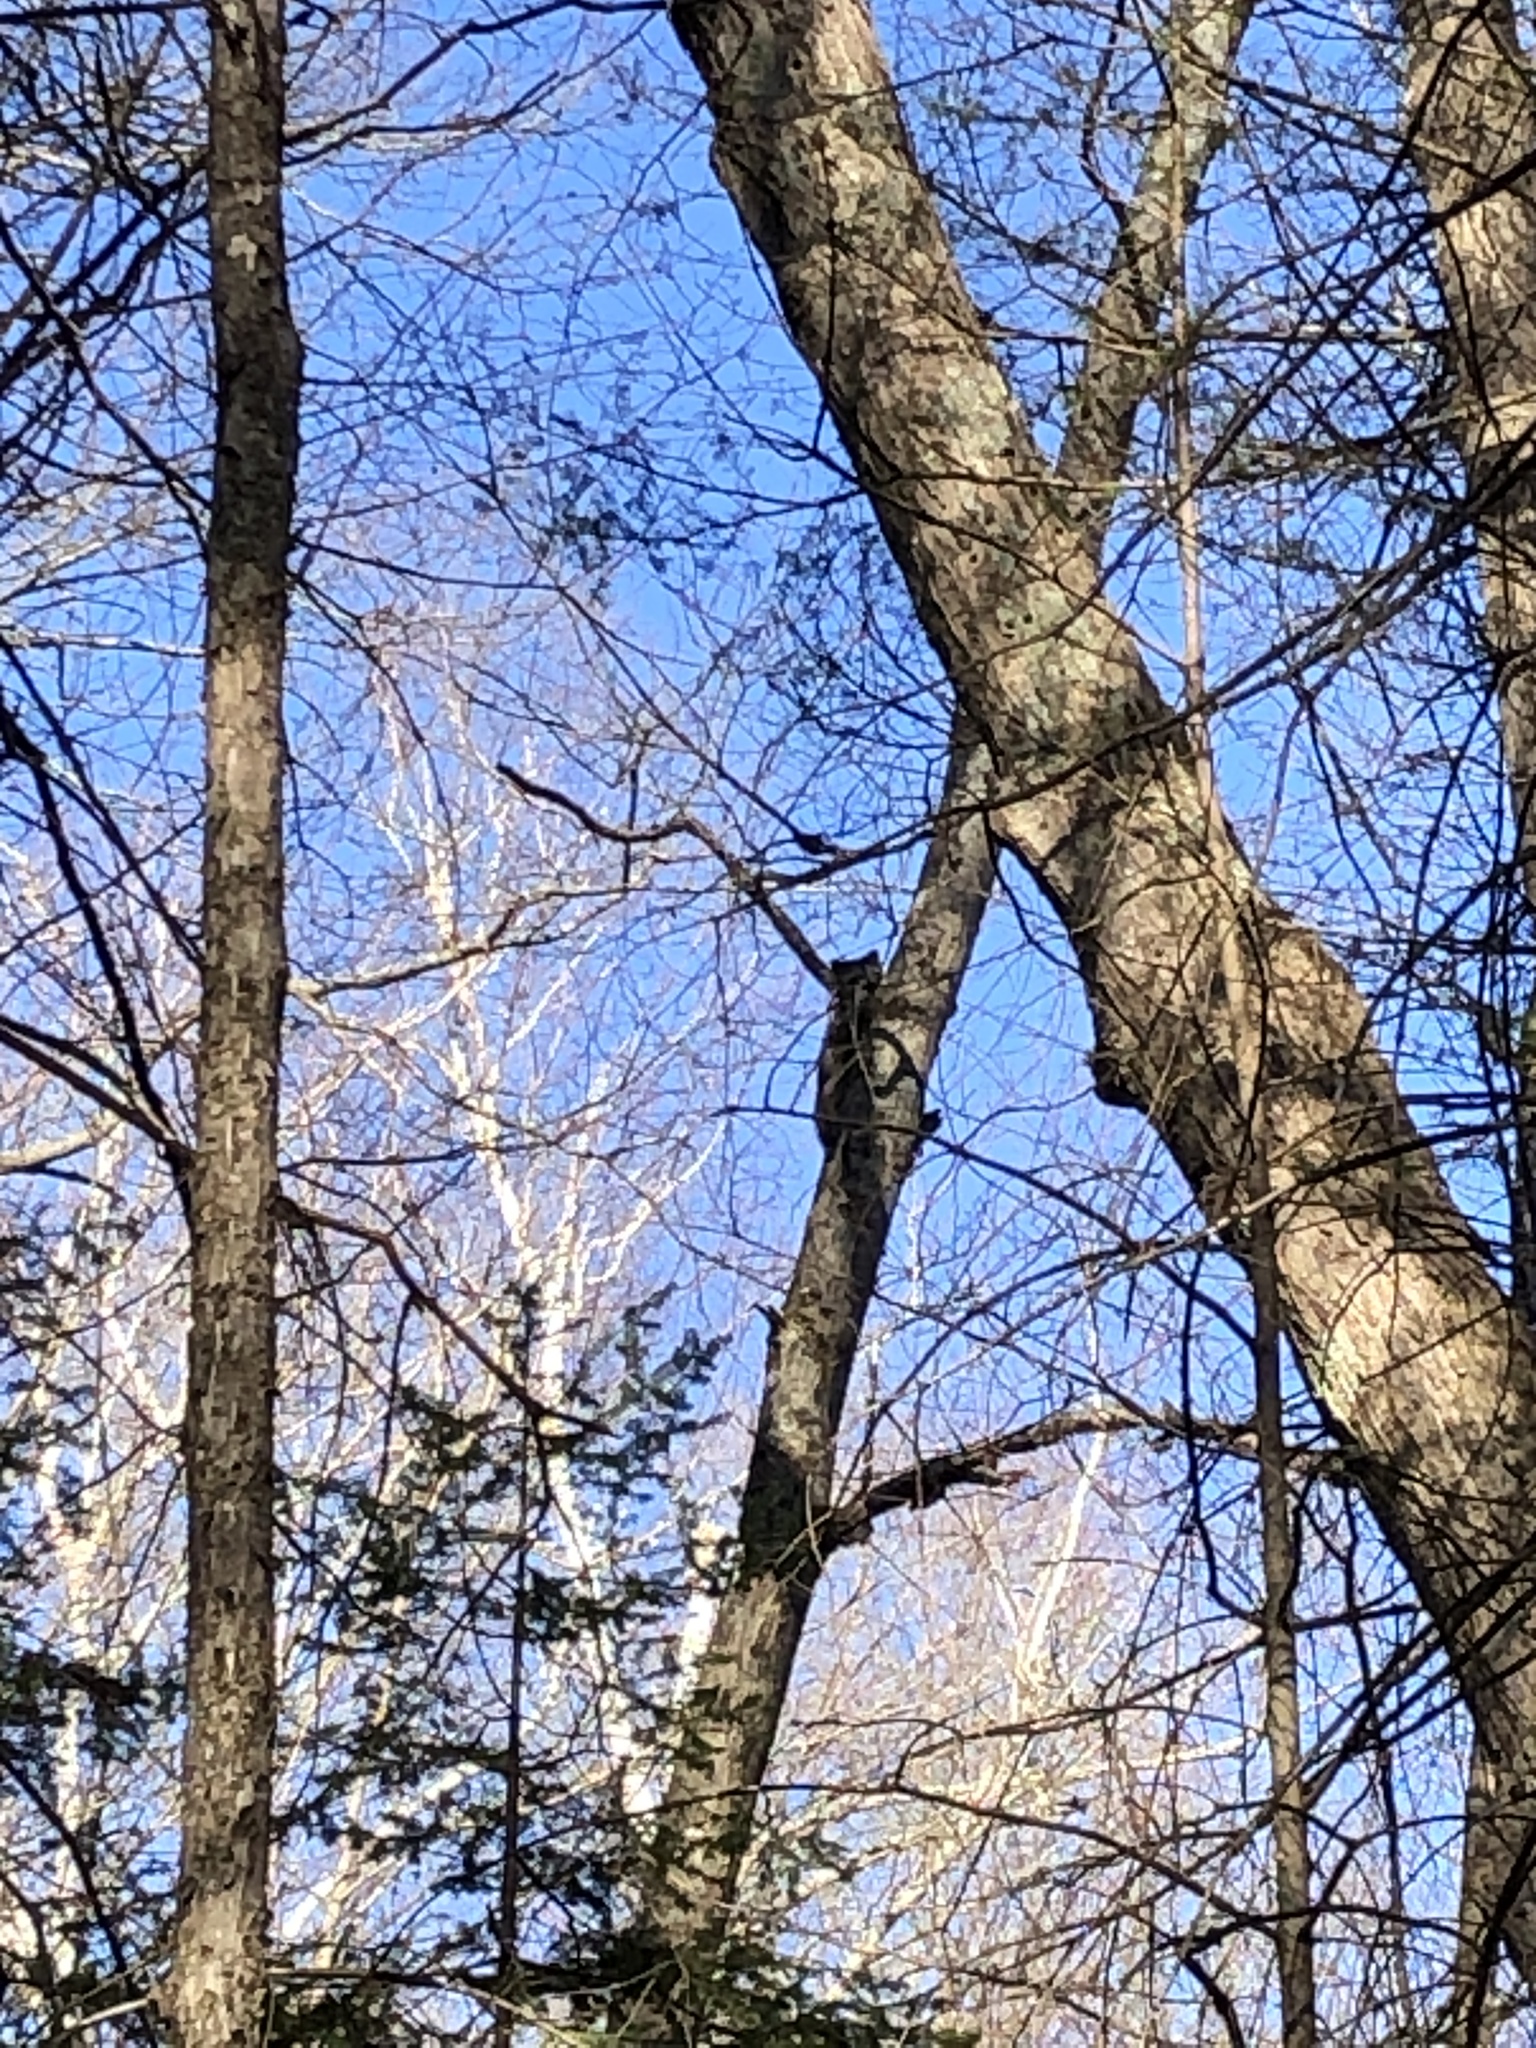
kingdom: Animalia
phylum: Chordata
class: Mammalia
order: Carnivora
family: Procyonidae
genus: Procyon
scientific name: Procyon lotor
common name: Raccoon
